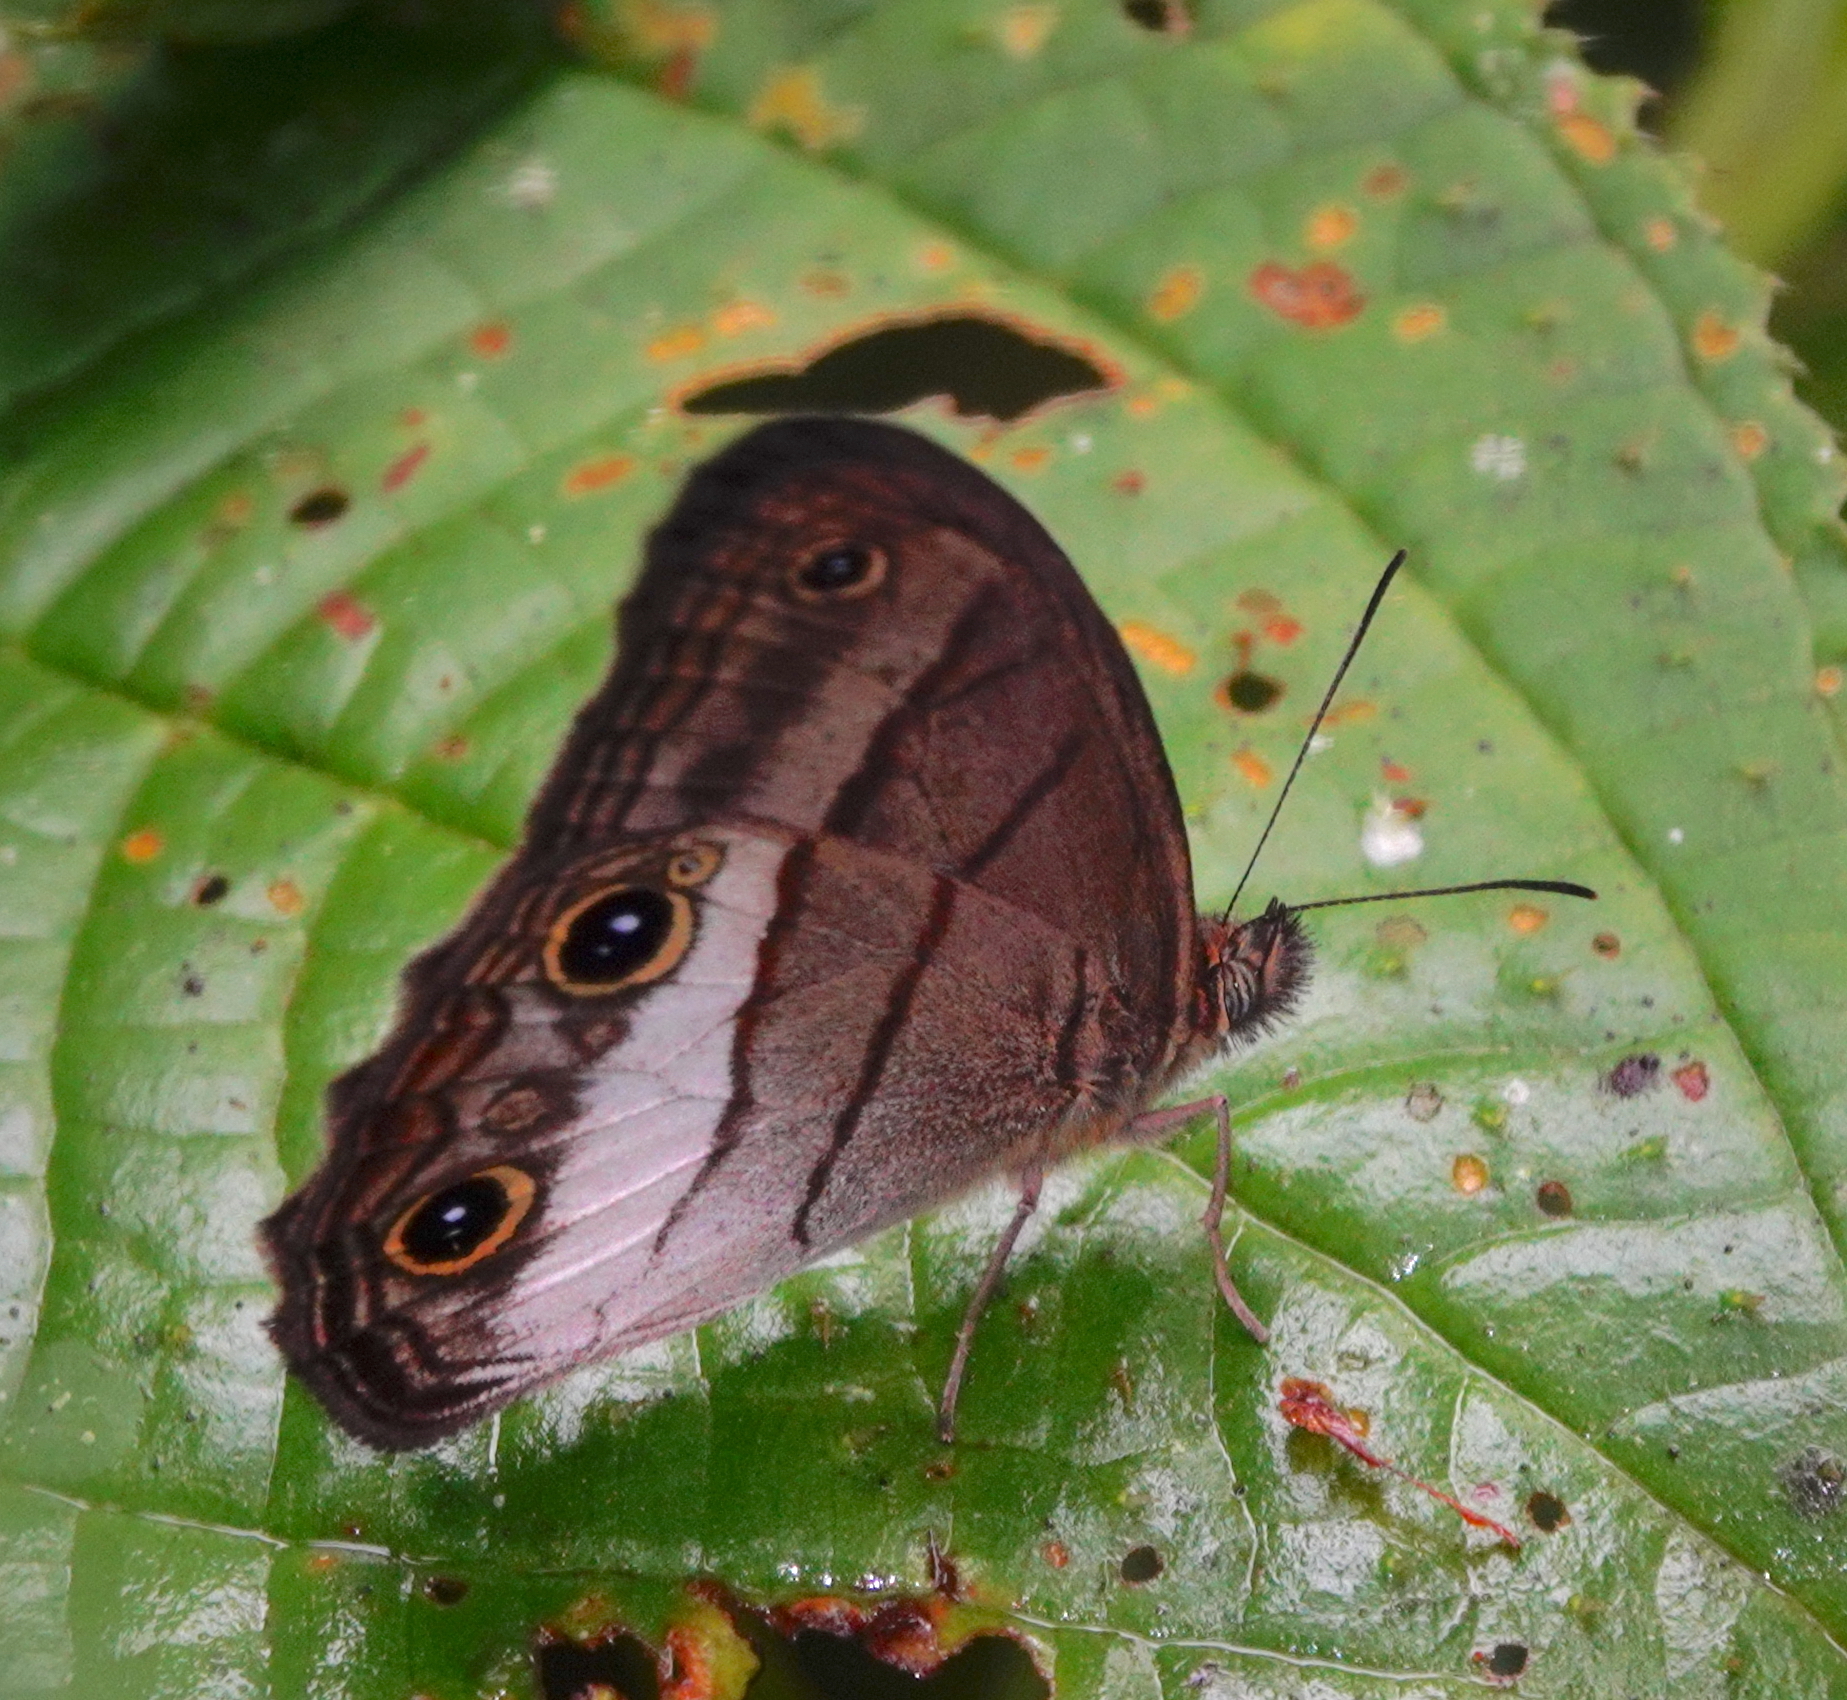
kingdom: Animalia
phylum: Arthropoda
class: Insecta
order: Lepidoptera
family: Nymphalidae
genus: Colombeia
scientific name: Colombeia
